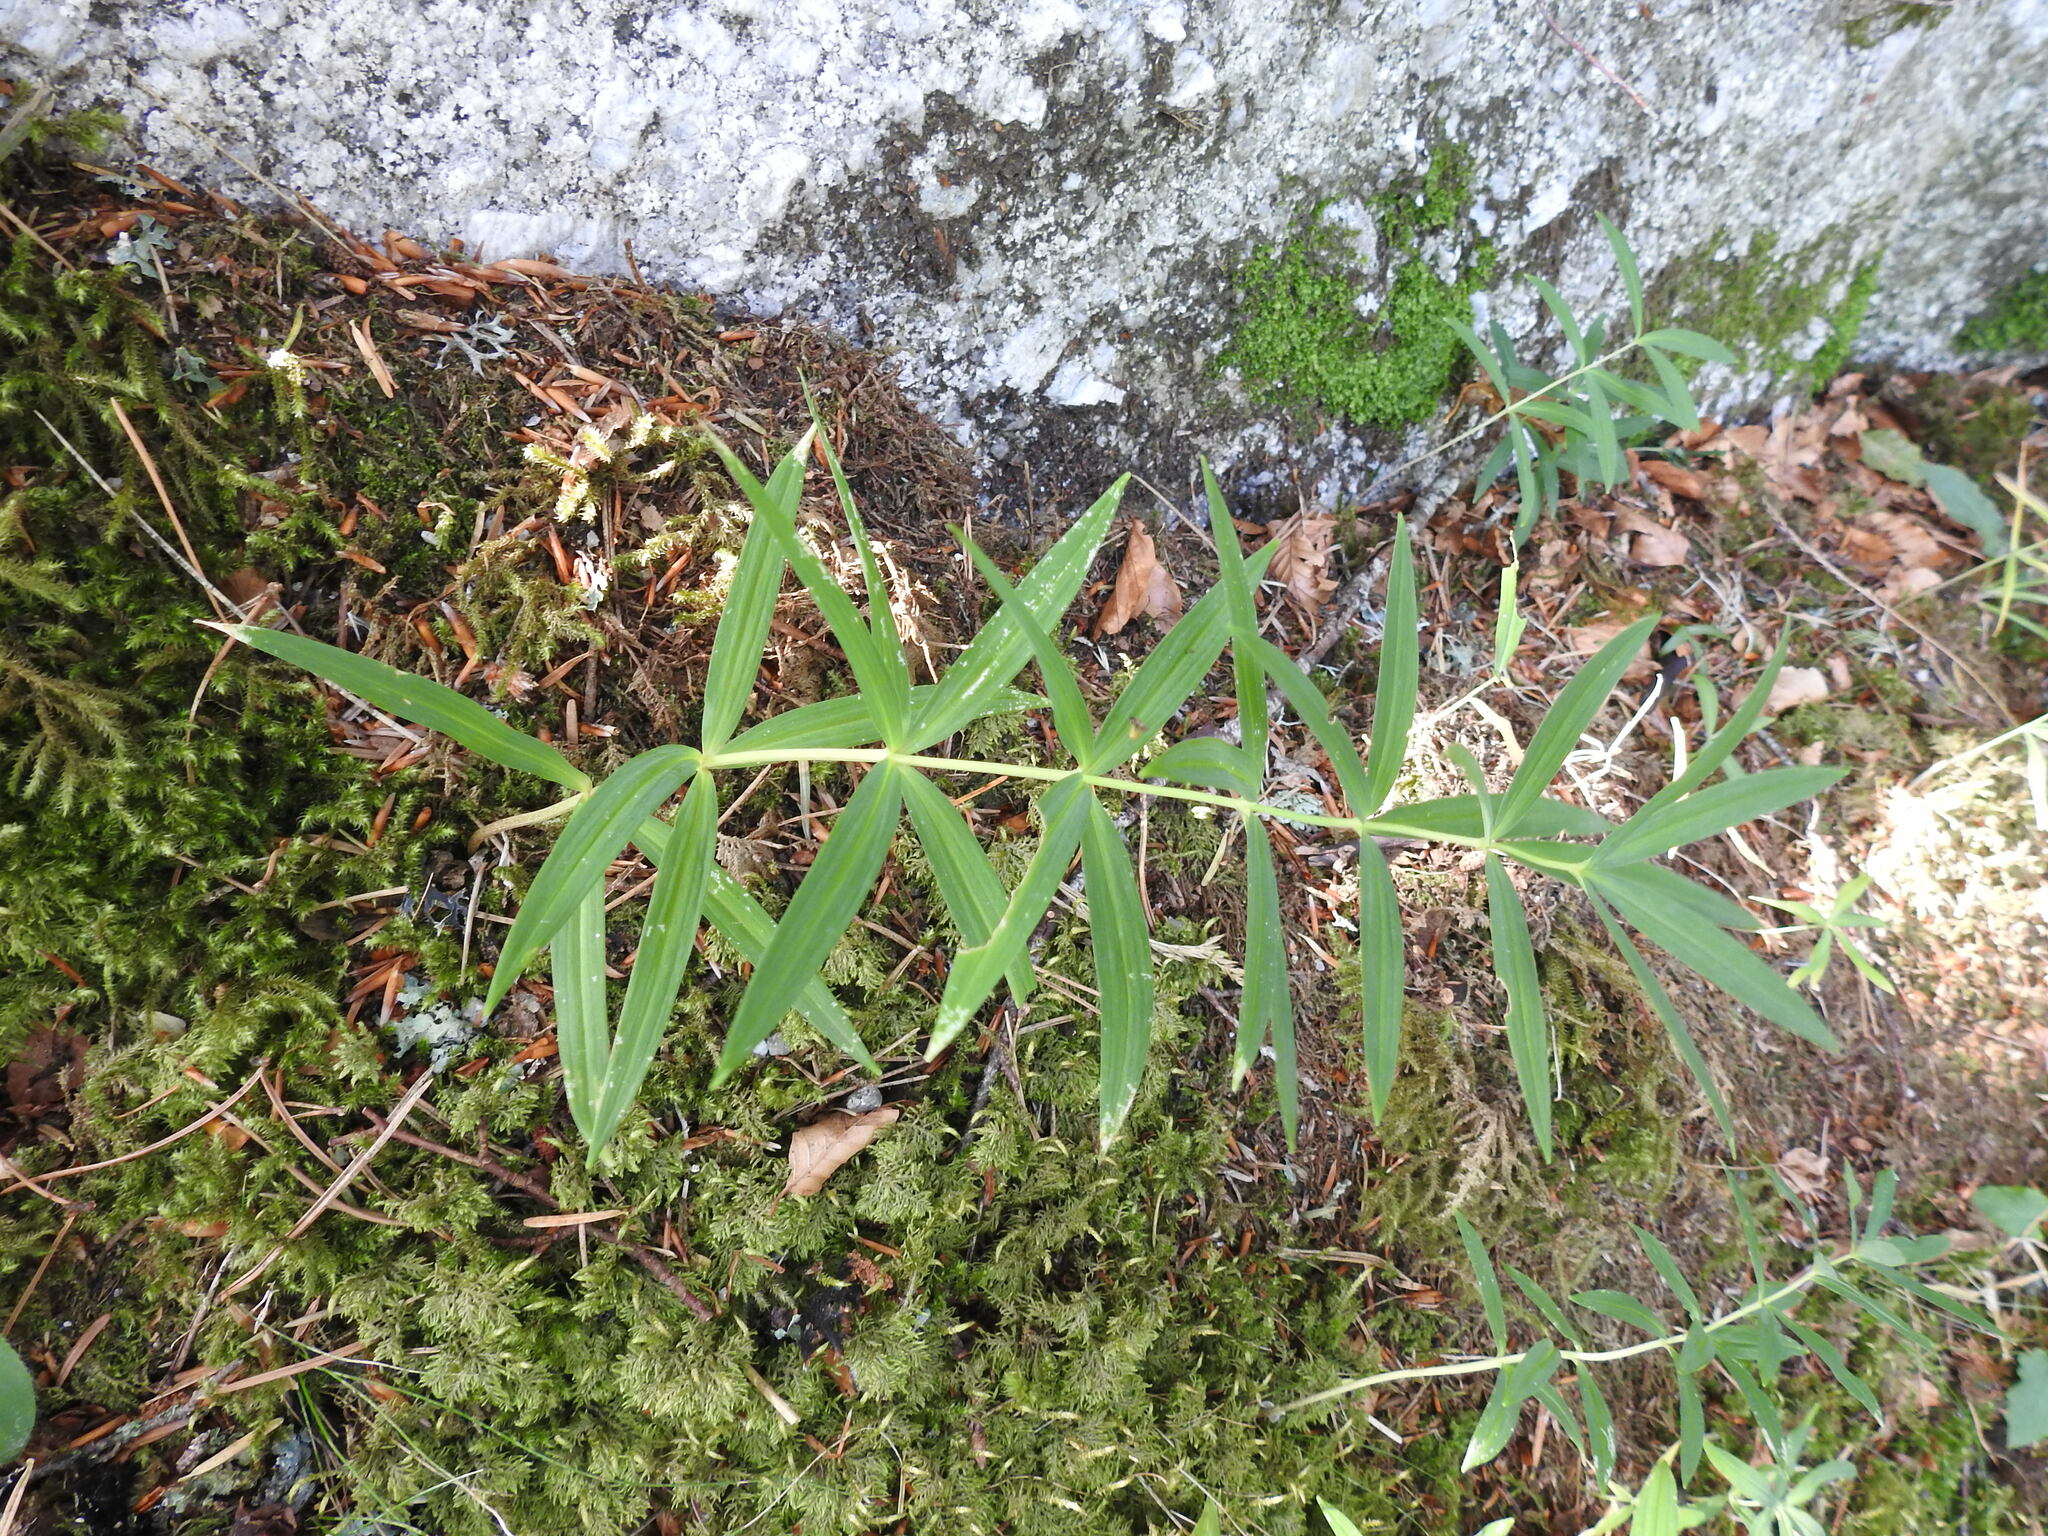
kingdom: Plantae
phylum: Tracheophyta
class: Liliopsida
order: Asparagales
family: Asparagaceae
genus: Polygonatum
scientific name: Polygonatum verticillatum
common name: Whorled solomon's-seal
